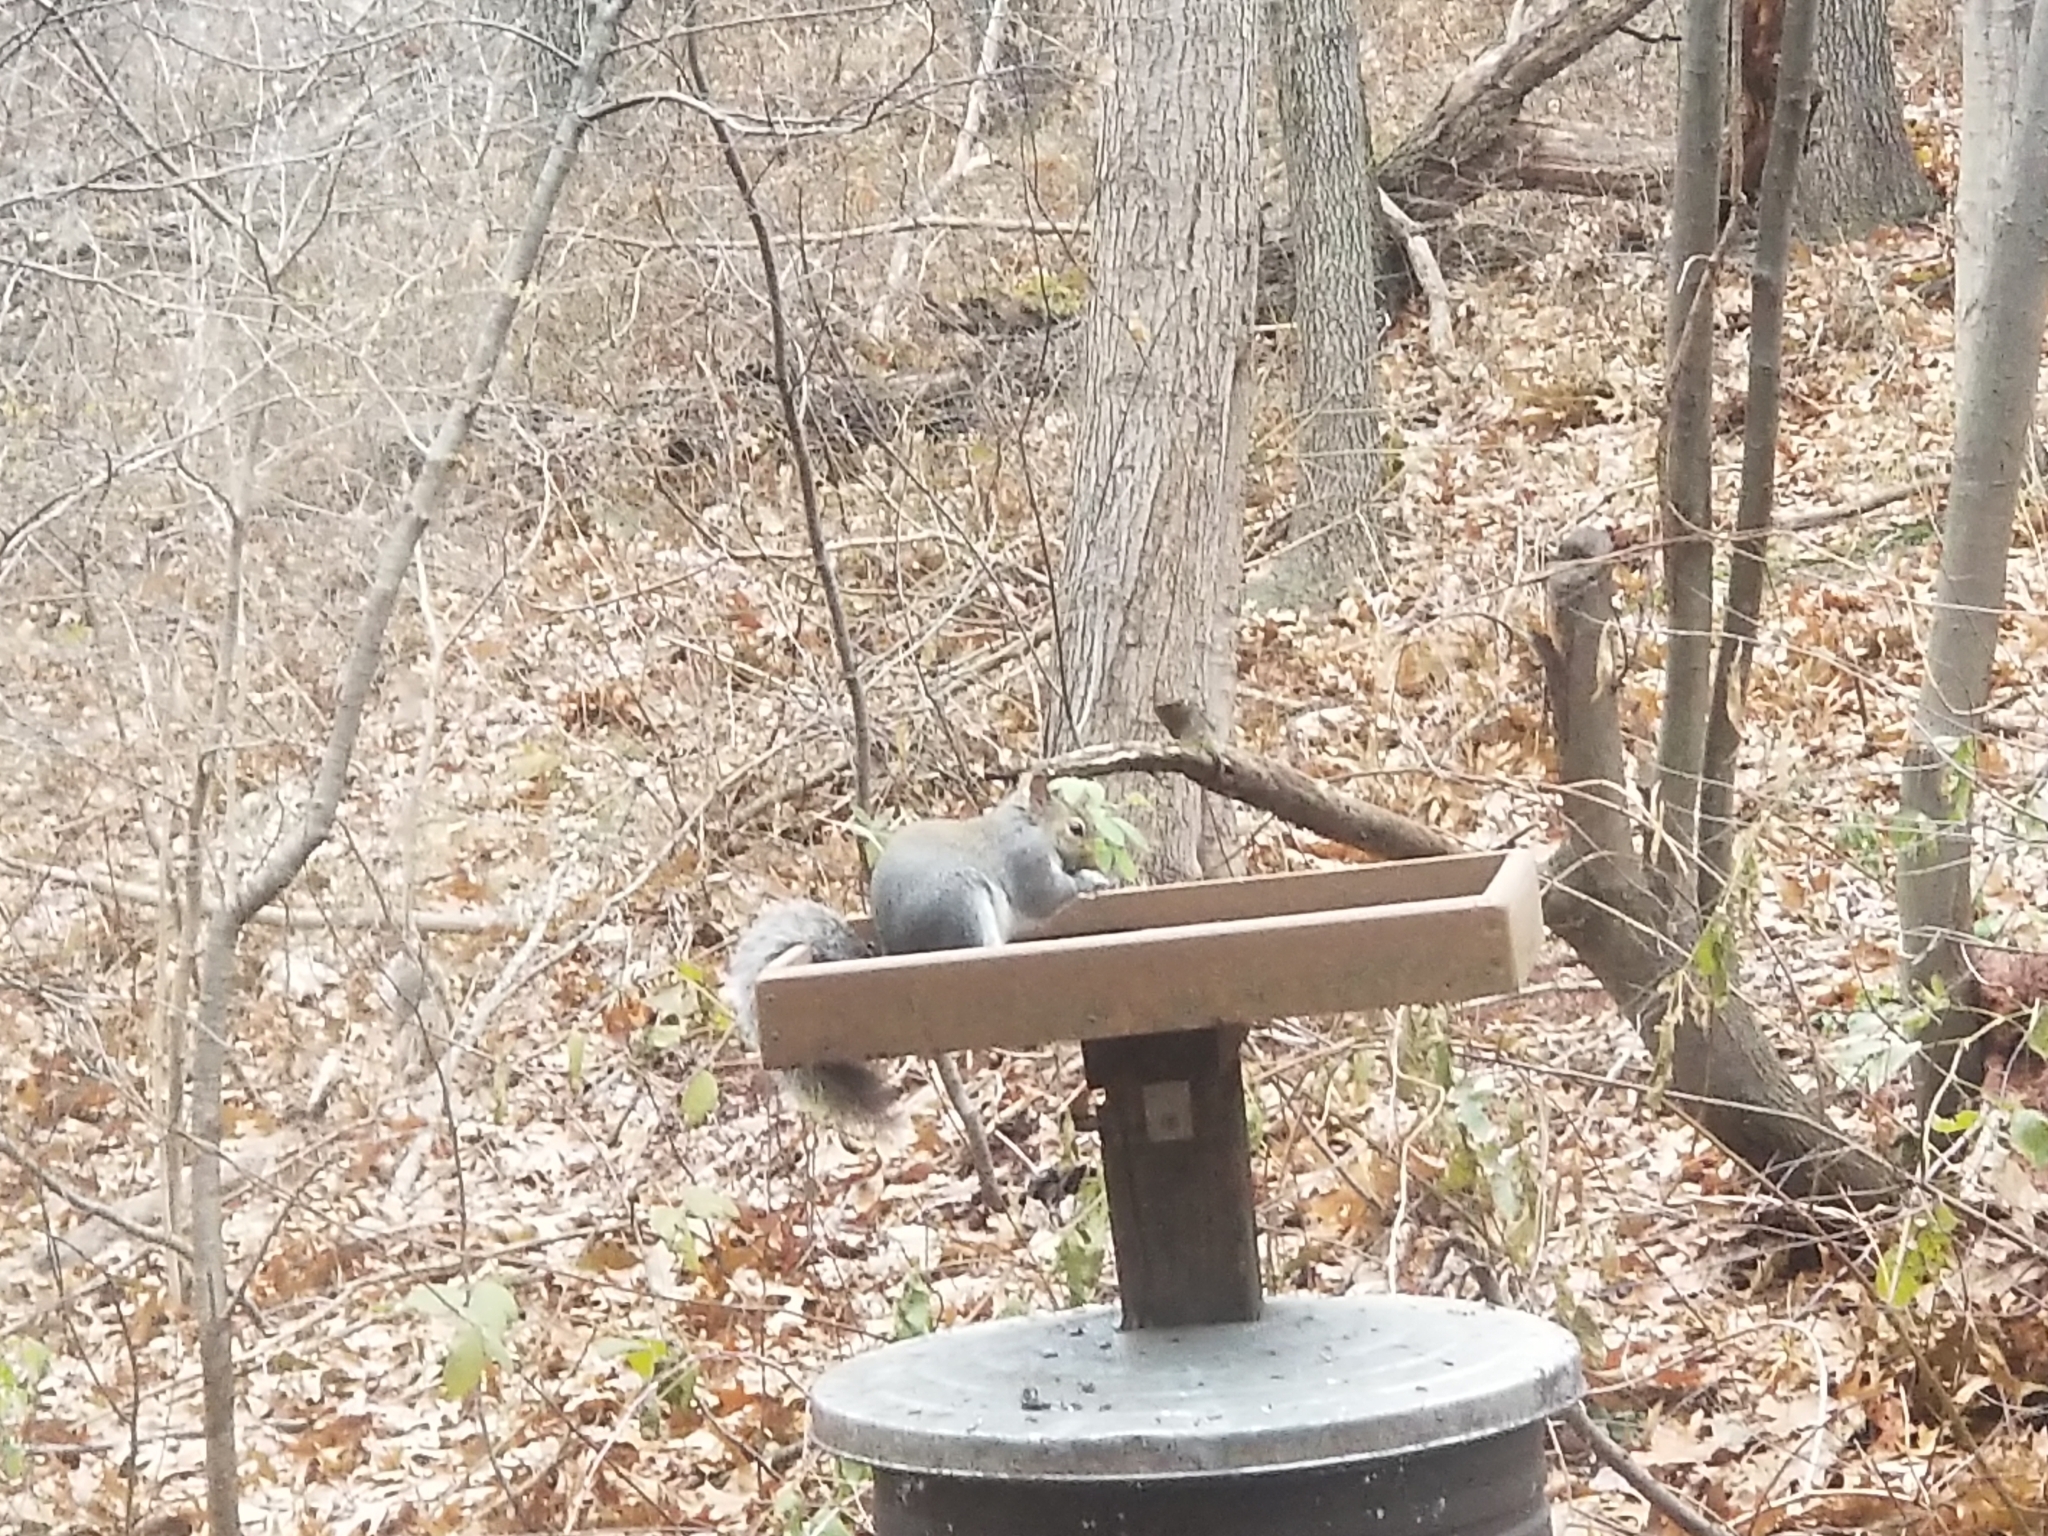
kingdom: Animalia
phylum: Chordata
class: Mammalia
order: Rodentia
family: Sciuridae
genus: Sciurus
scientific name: Sciurus carolinensis
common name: Eastern gray squirrel
